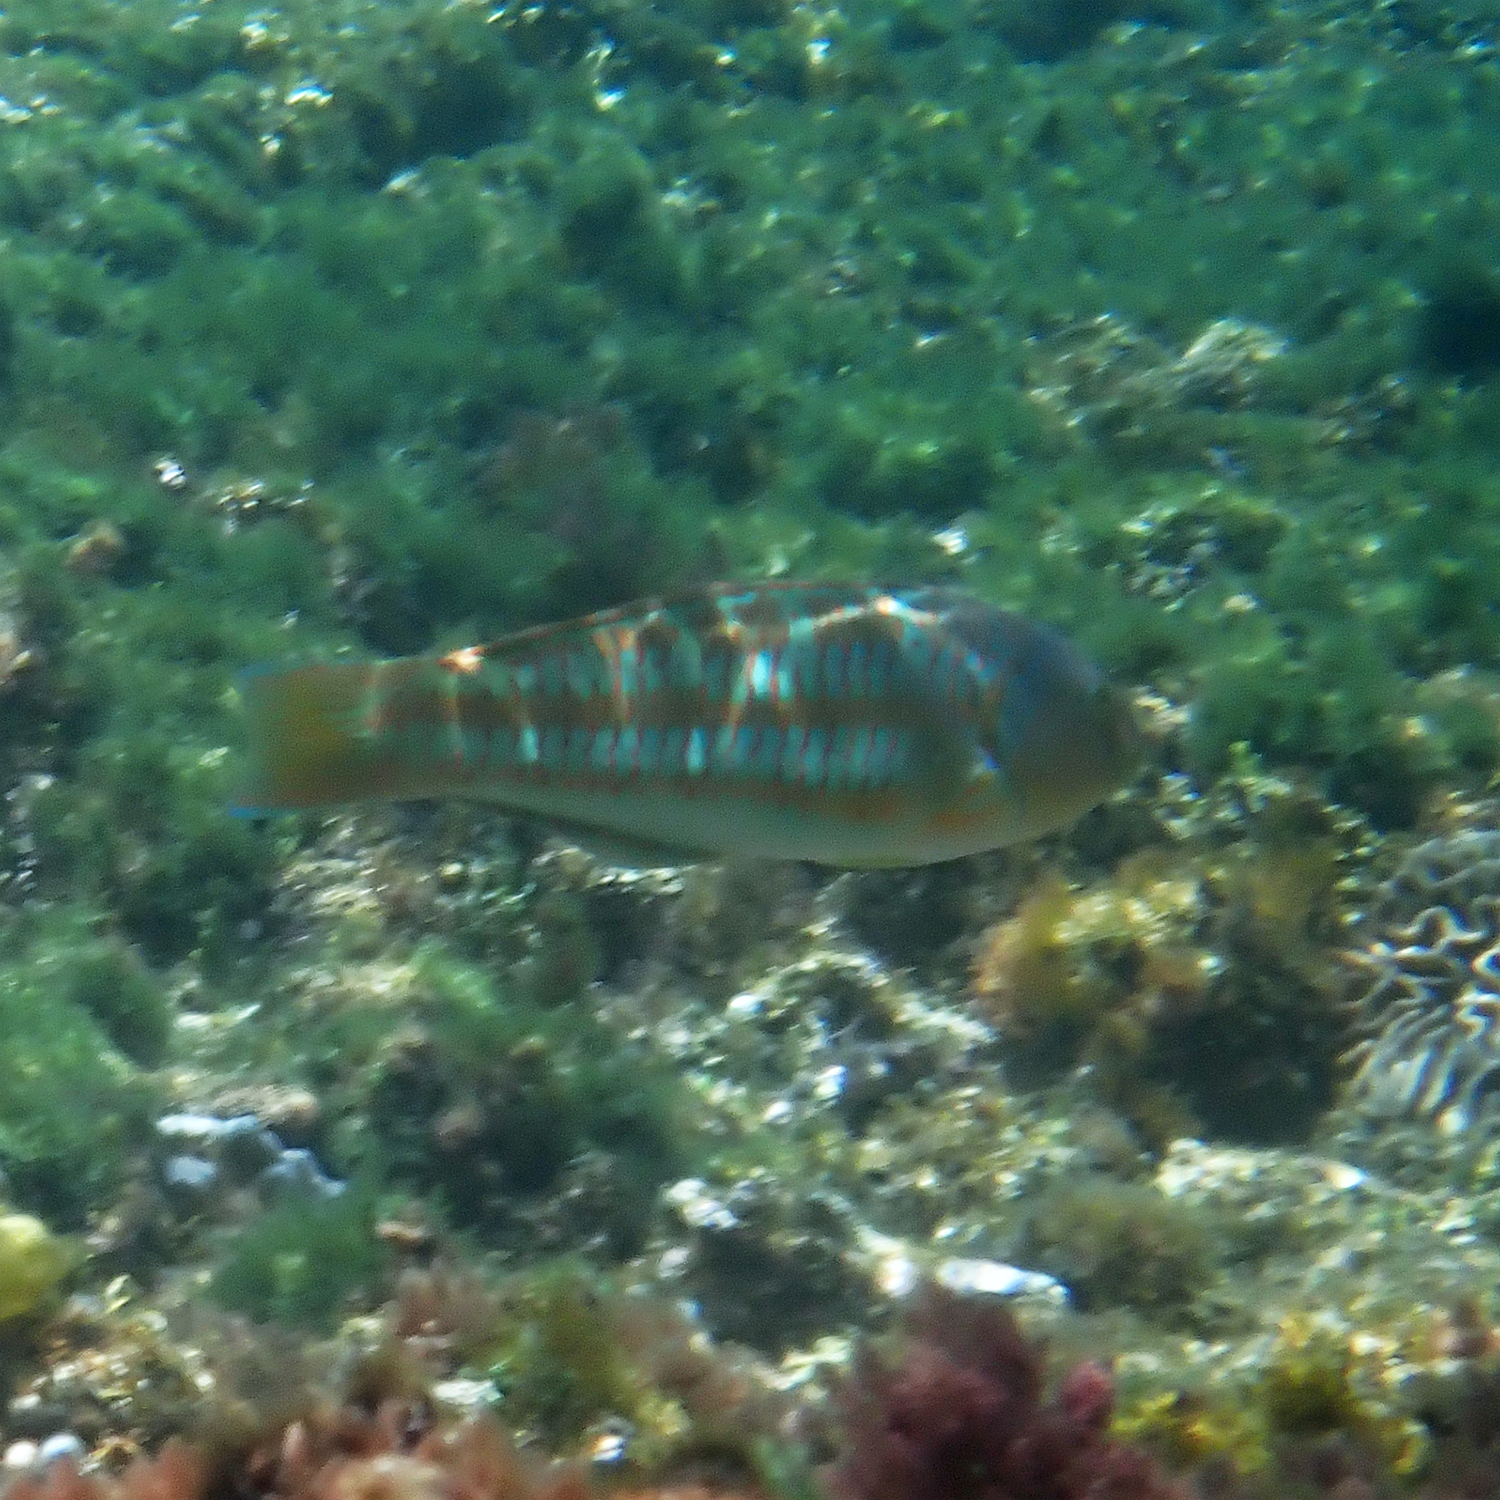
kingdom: Animalia
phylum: Chordata
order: Perciformes
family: Labridae
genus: Thalassoma
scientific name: Thalassoma trilobatum
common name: Christmas wrasse
